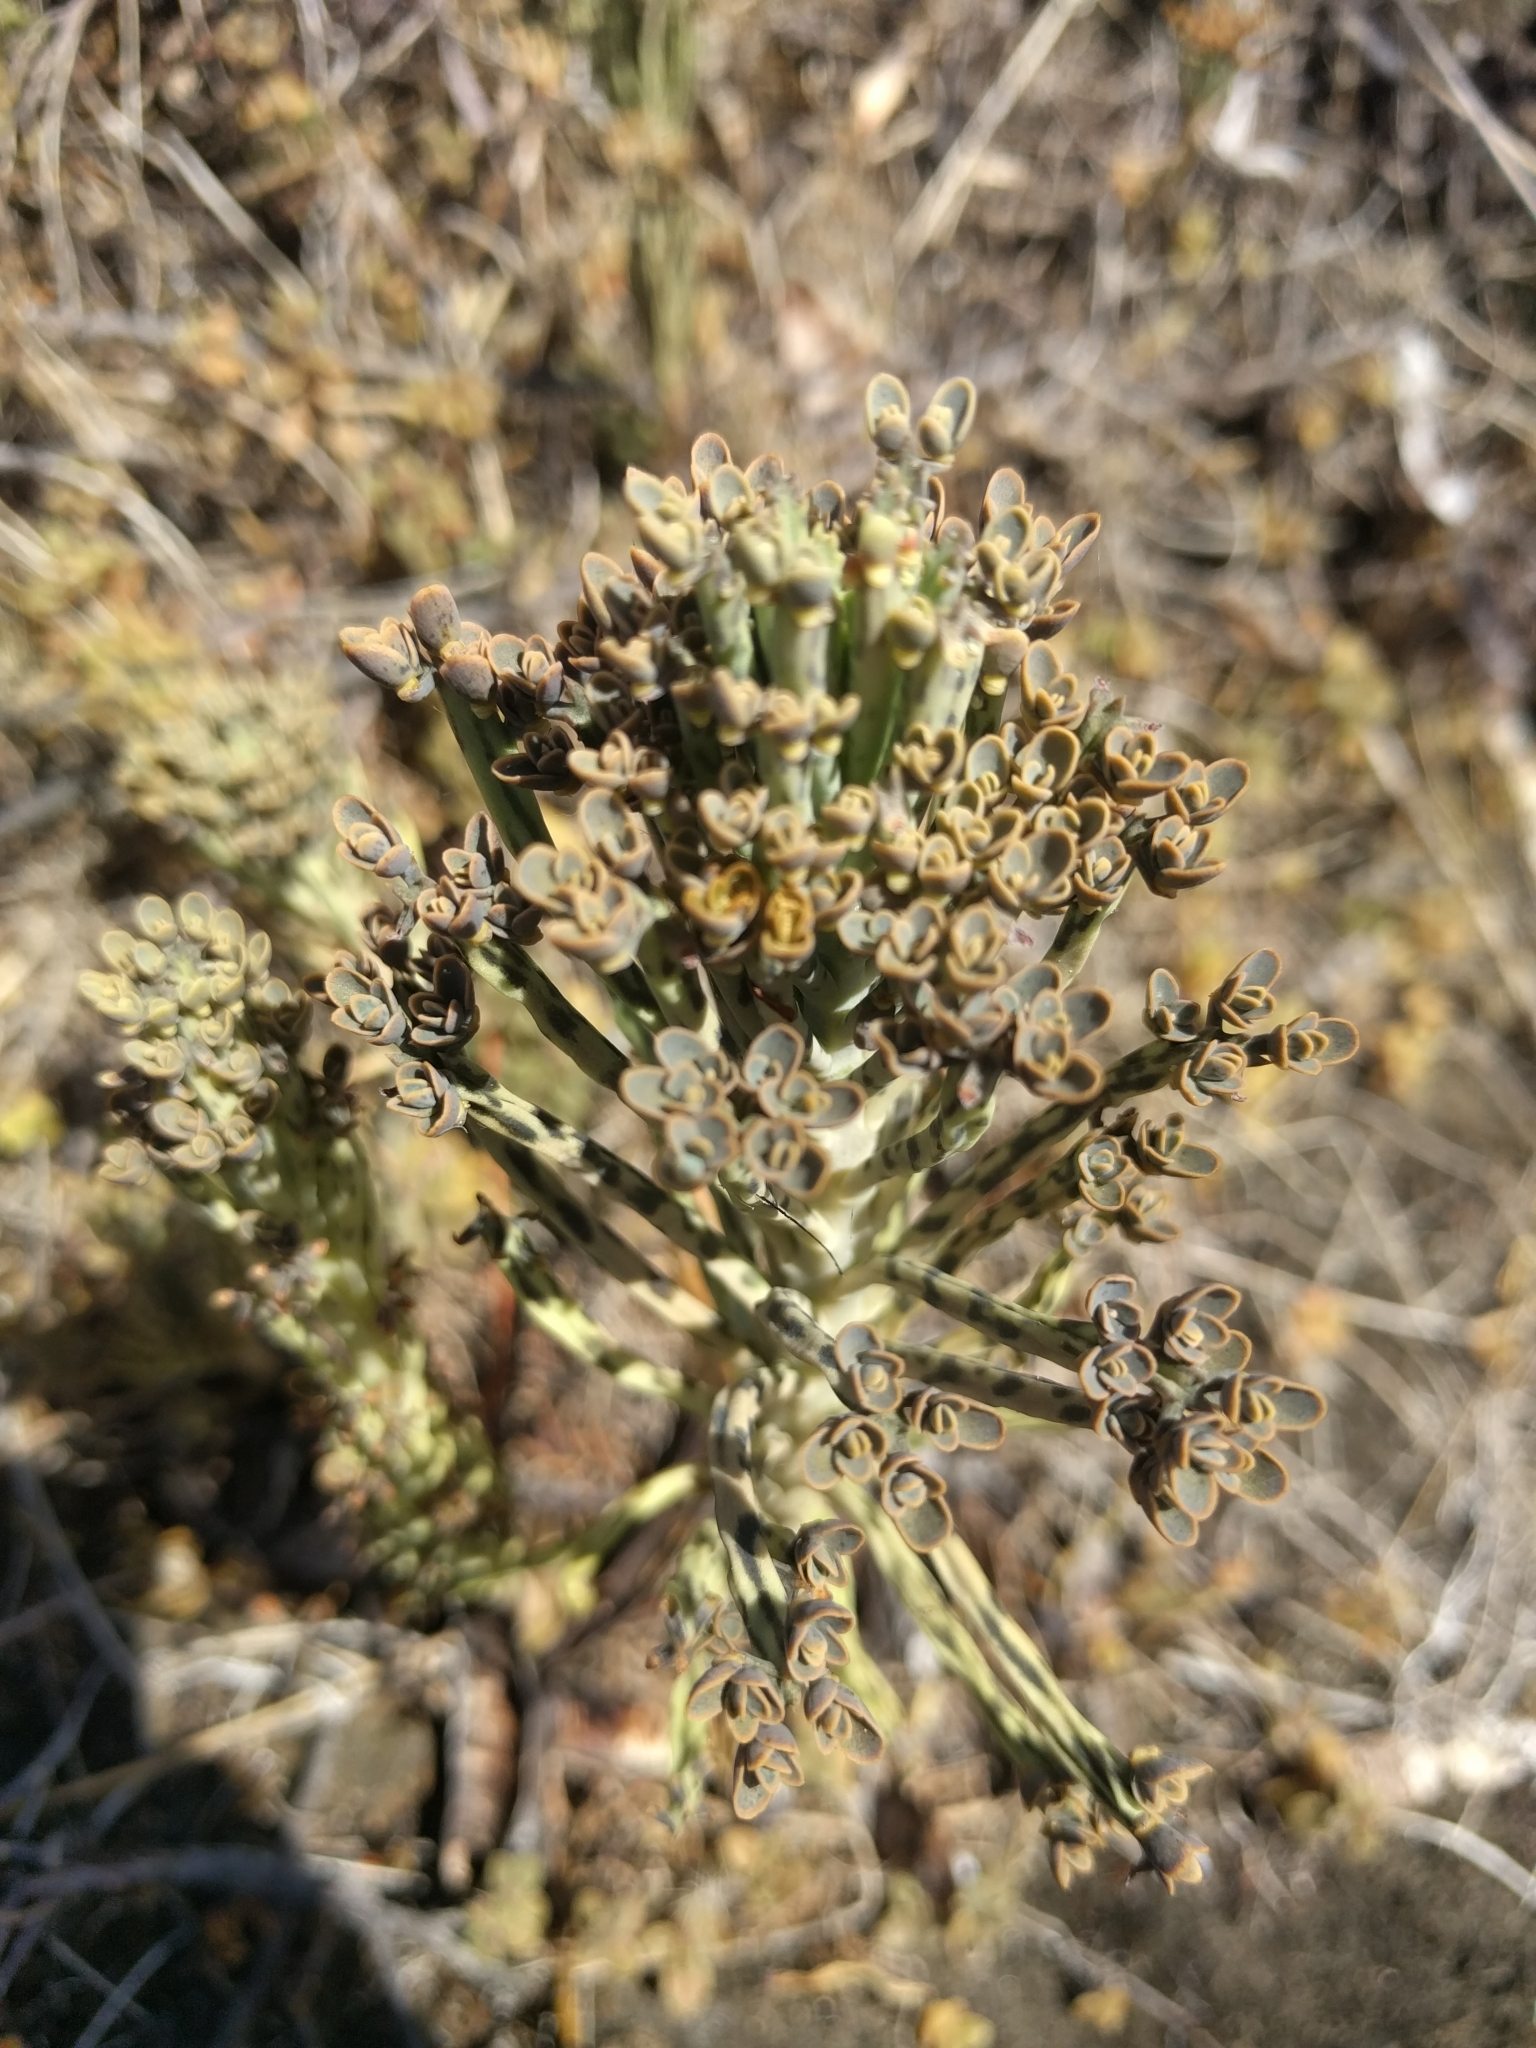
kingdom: Plantae
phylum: Tracheophyta
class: Magnoliopsida
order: Saxifragales
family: Crassulaceae
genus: Kalanchoe
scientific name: Kalanchoe delagoensis
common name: Chandelier plant
